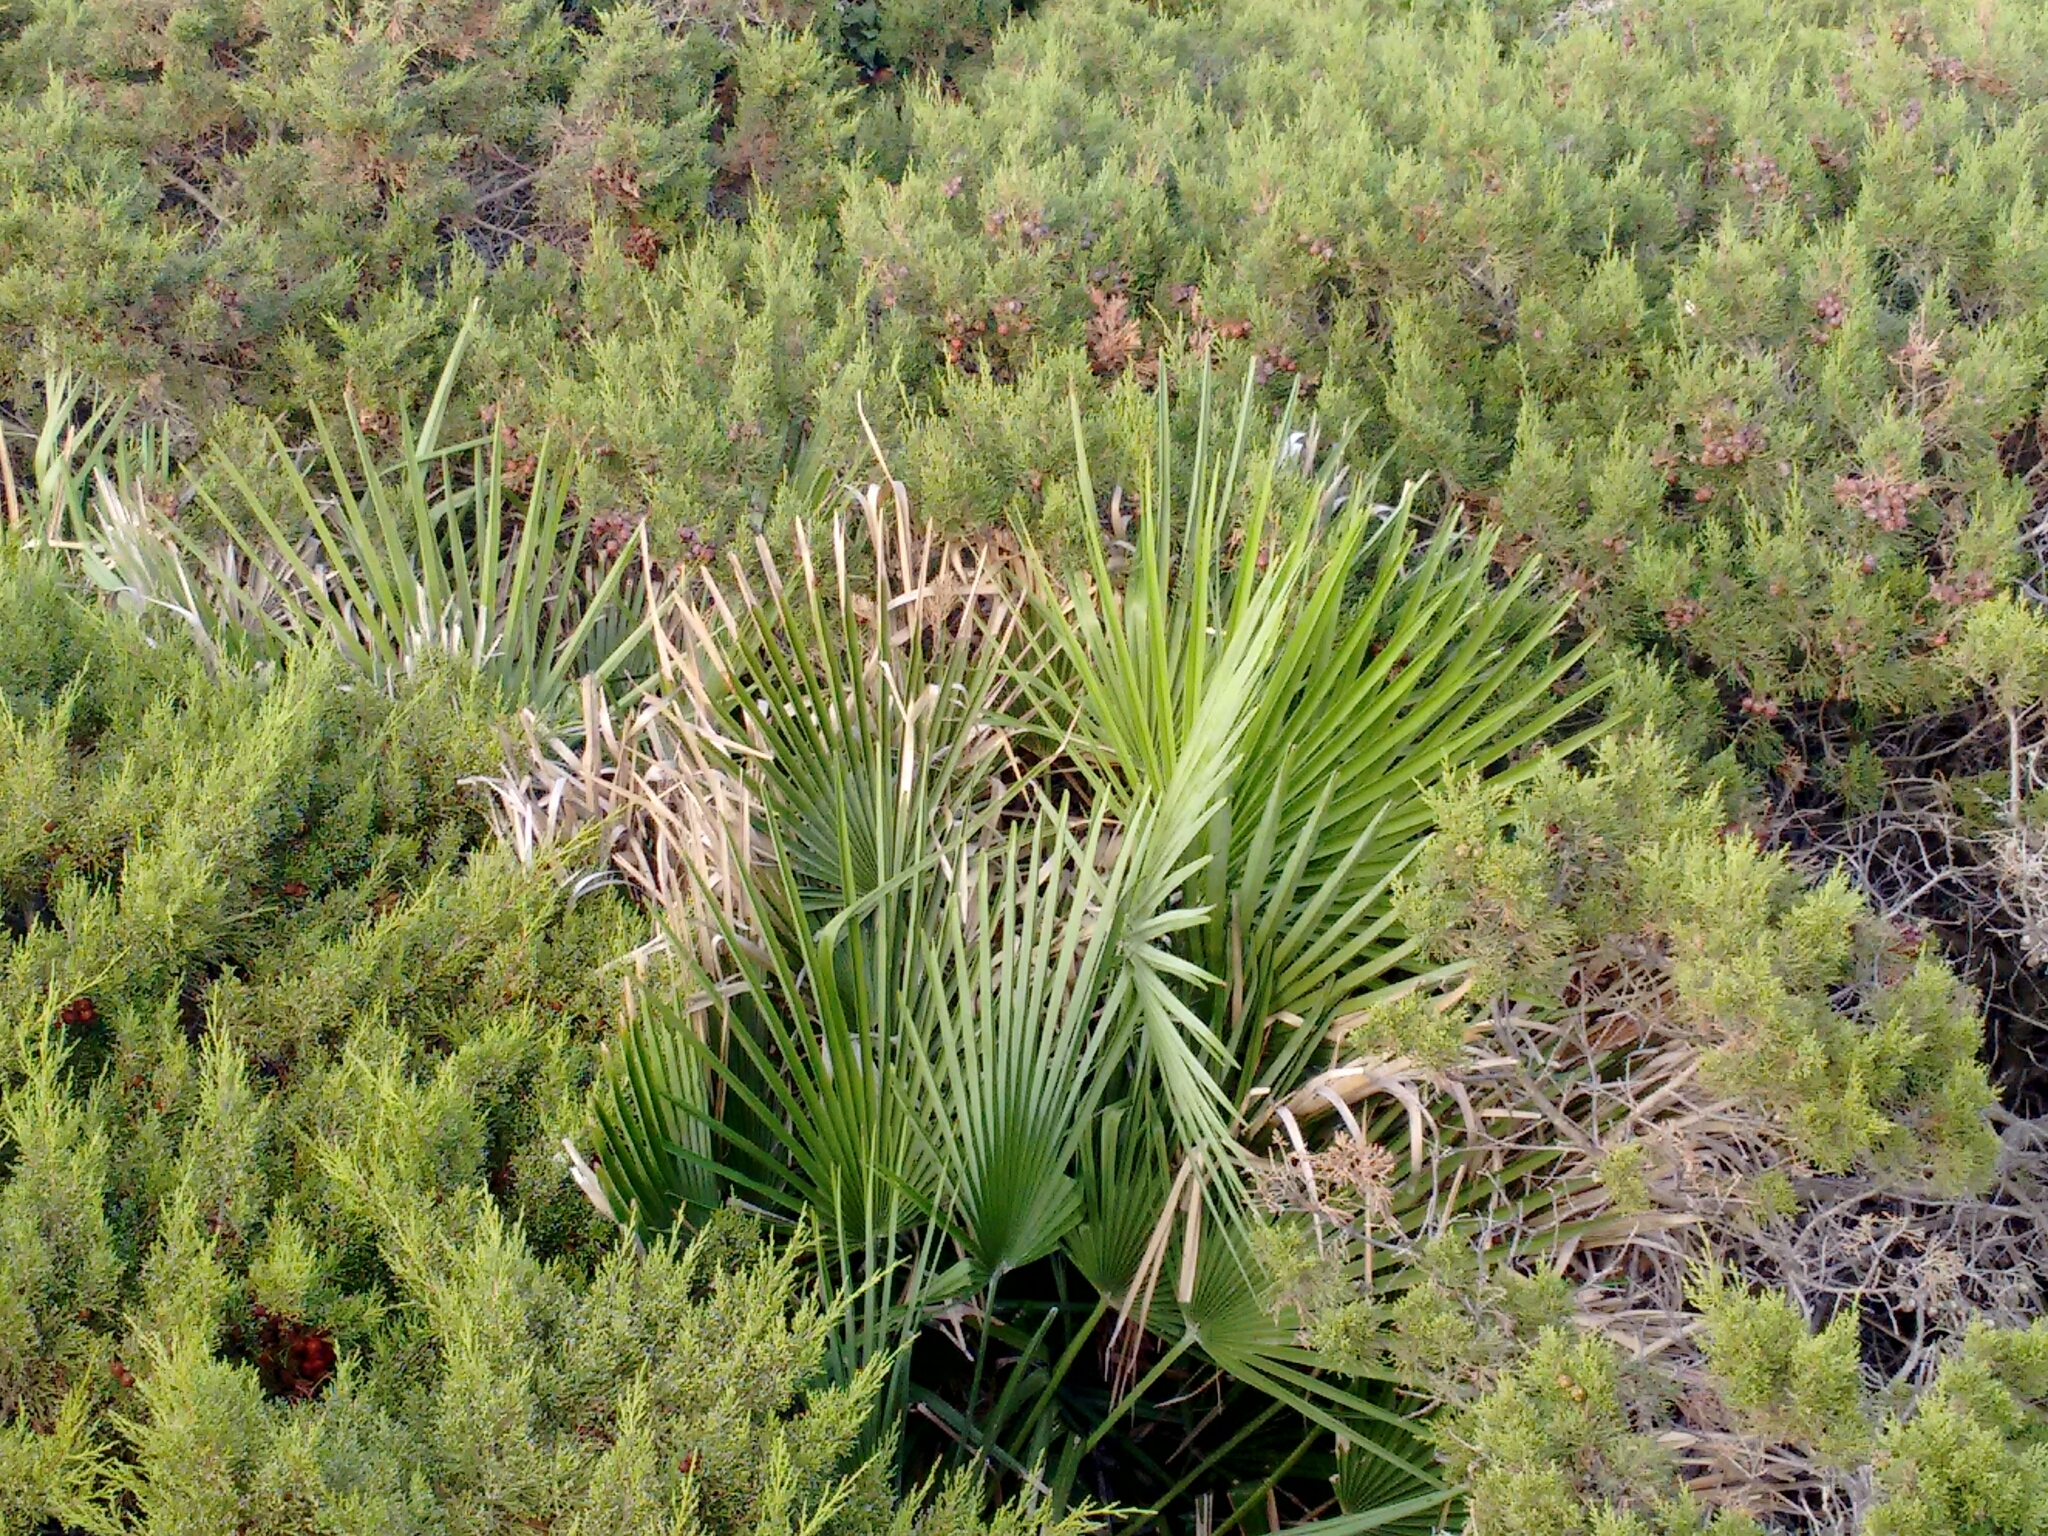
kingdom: Plantae
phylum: Tracheophyta
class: Liliopsida
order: Arecales
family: Arecaceae
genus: Chamaerops
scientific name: Chamaerops humilis
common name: Dwarf fan palm
